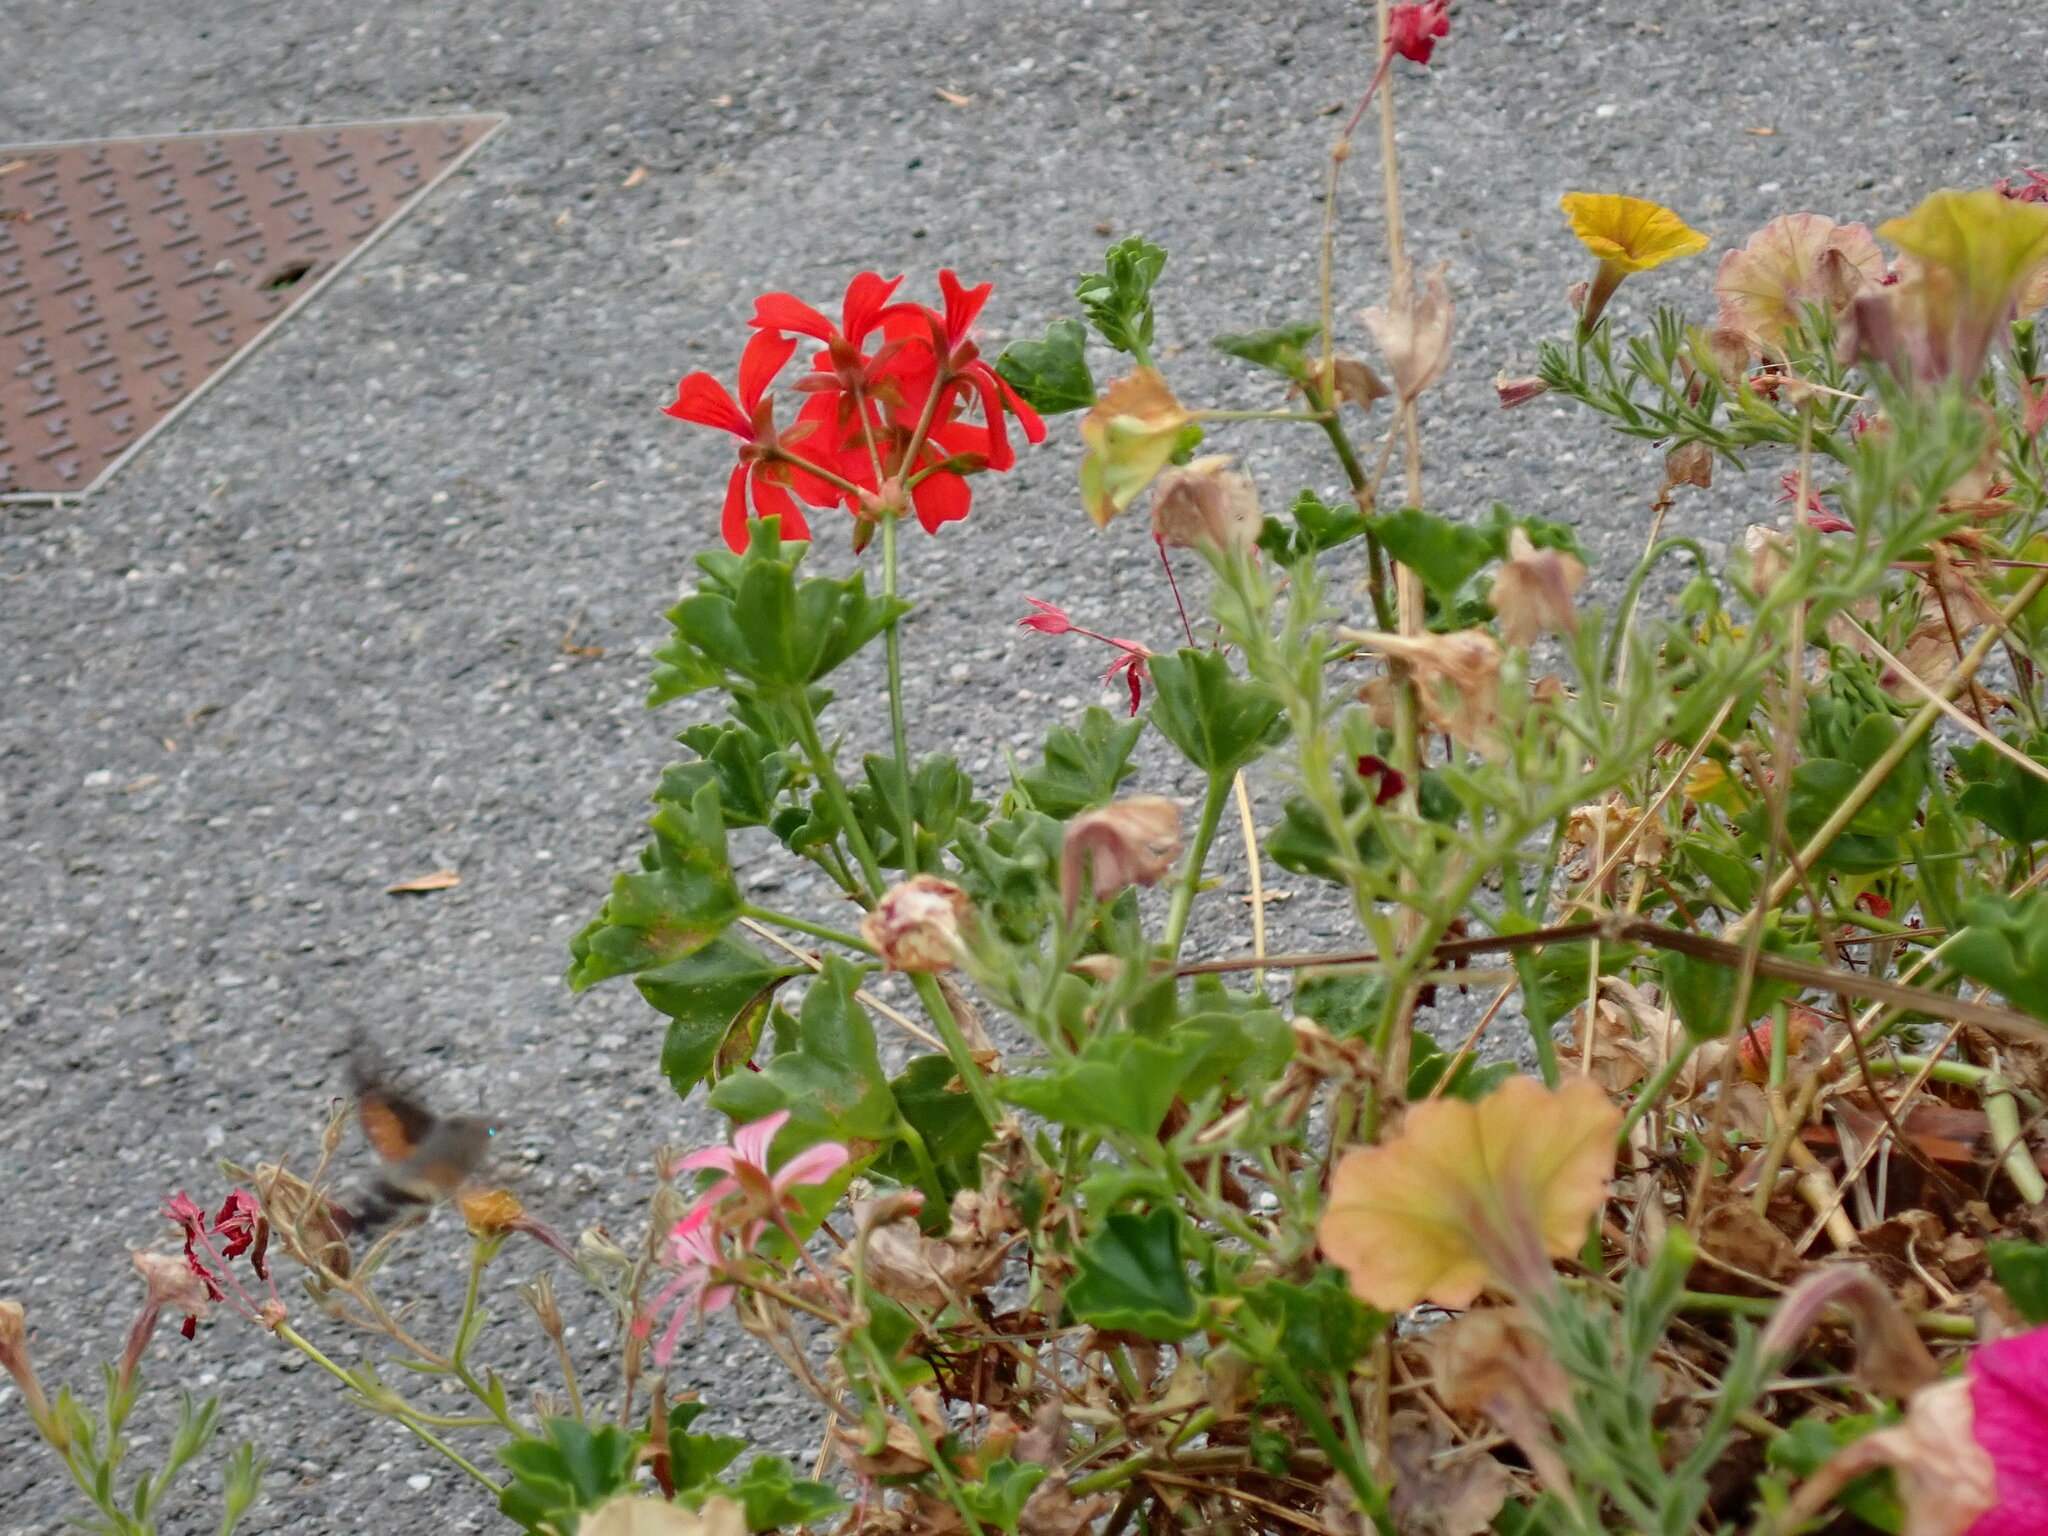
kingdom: Animalia
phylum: Arthropoda
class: Insecta
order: Lepidoptera
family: Sphingidae
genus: Macroglossum
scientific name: Macroglossum stellatarum
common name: Humming-bird hawk-moth
